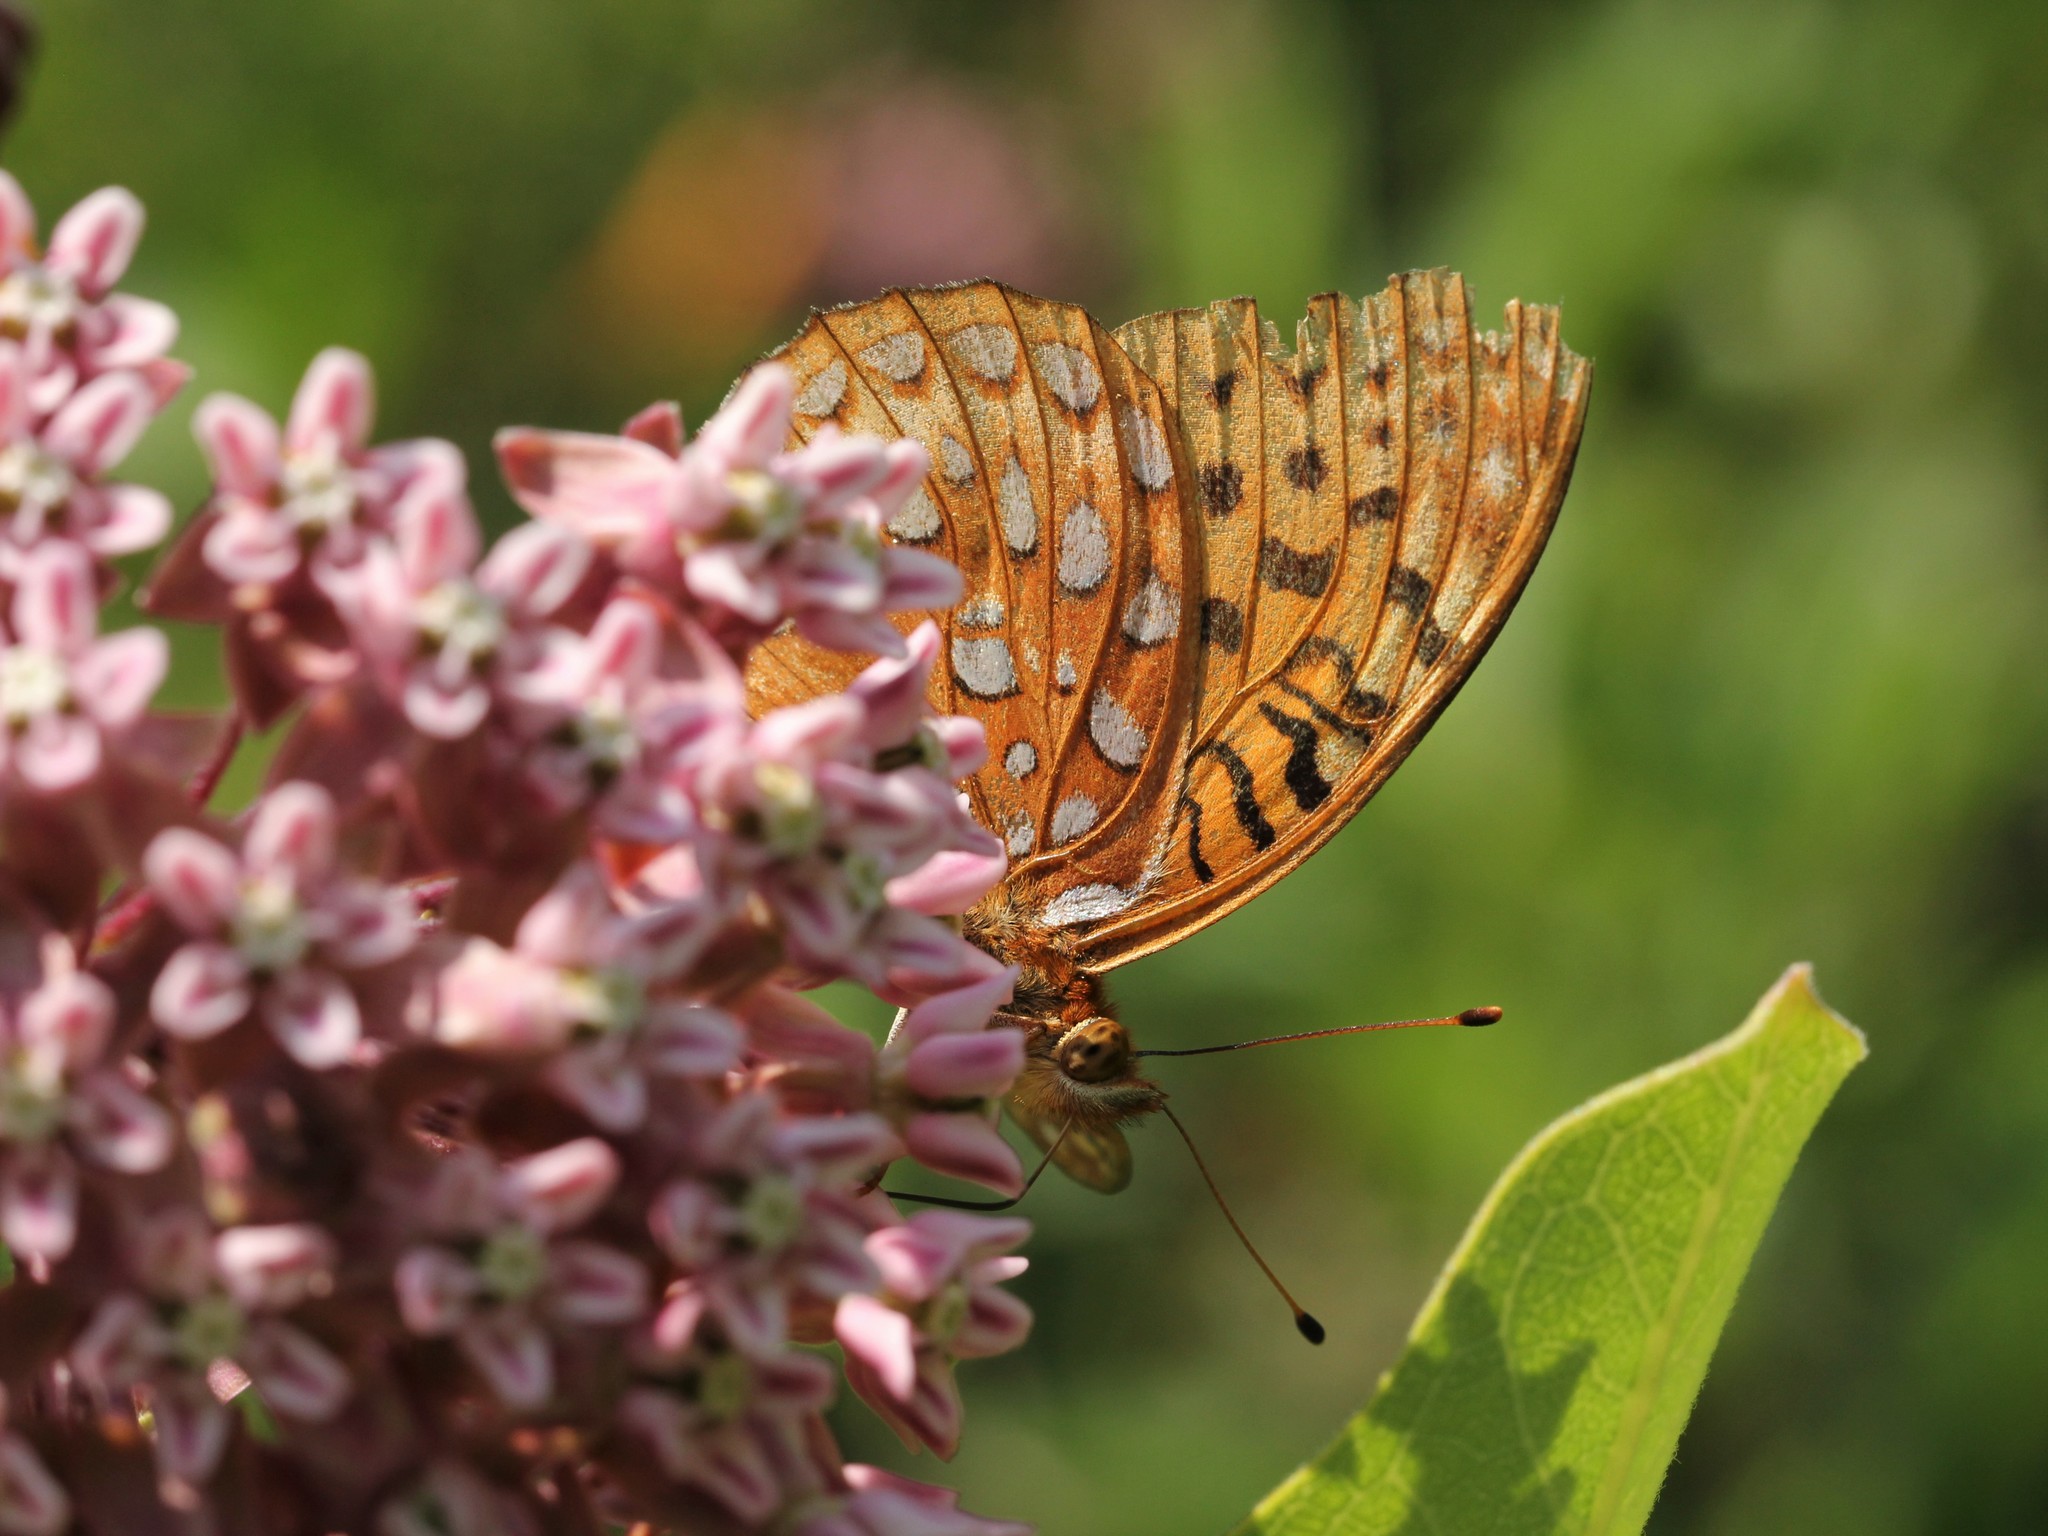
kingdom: Animalia
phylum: Arthropoda
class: Insecta
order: Lepidoptera
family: Nymphalidae
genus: Speyeria
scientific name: Speyeria aphrodite
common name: Aphrodite friitllary
